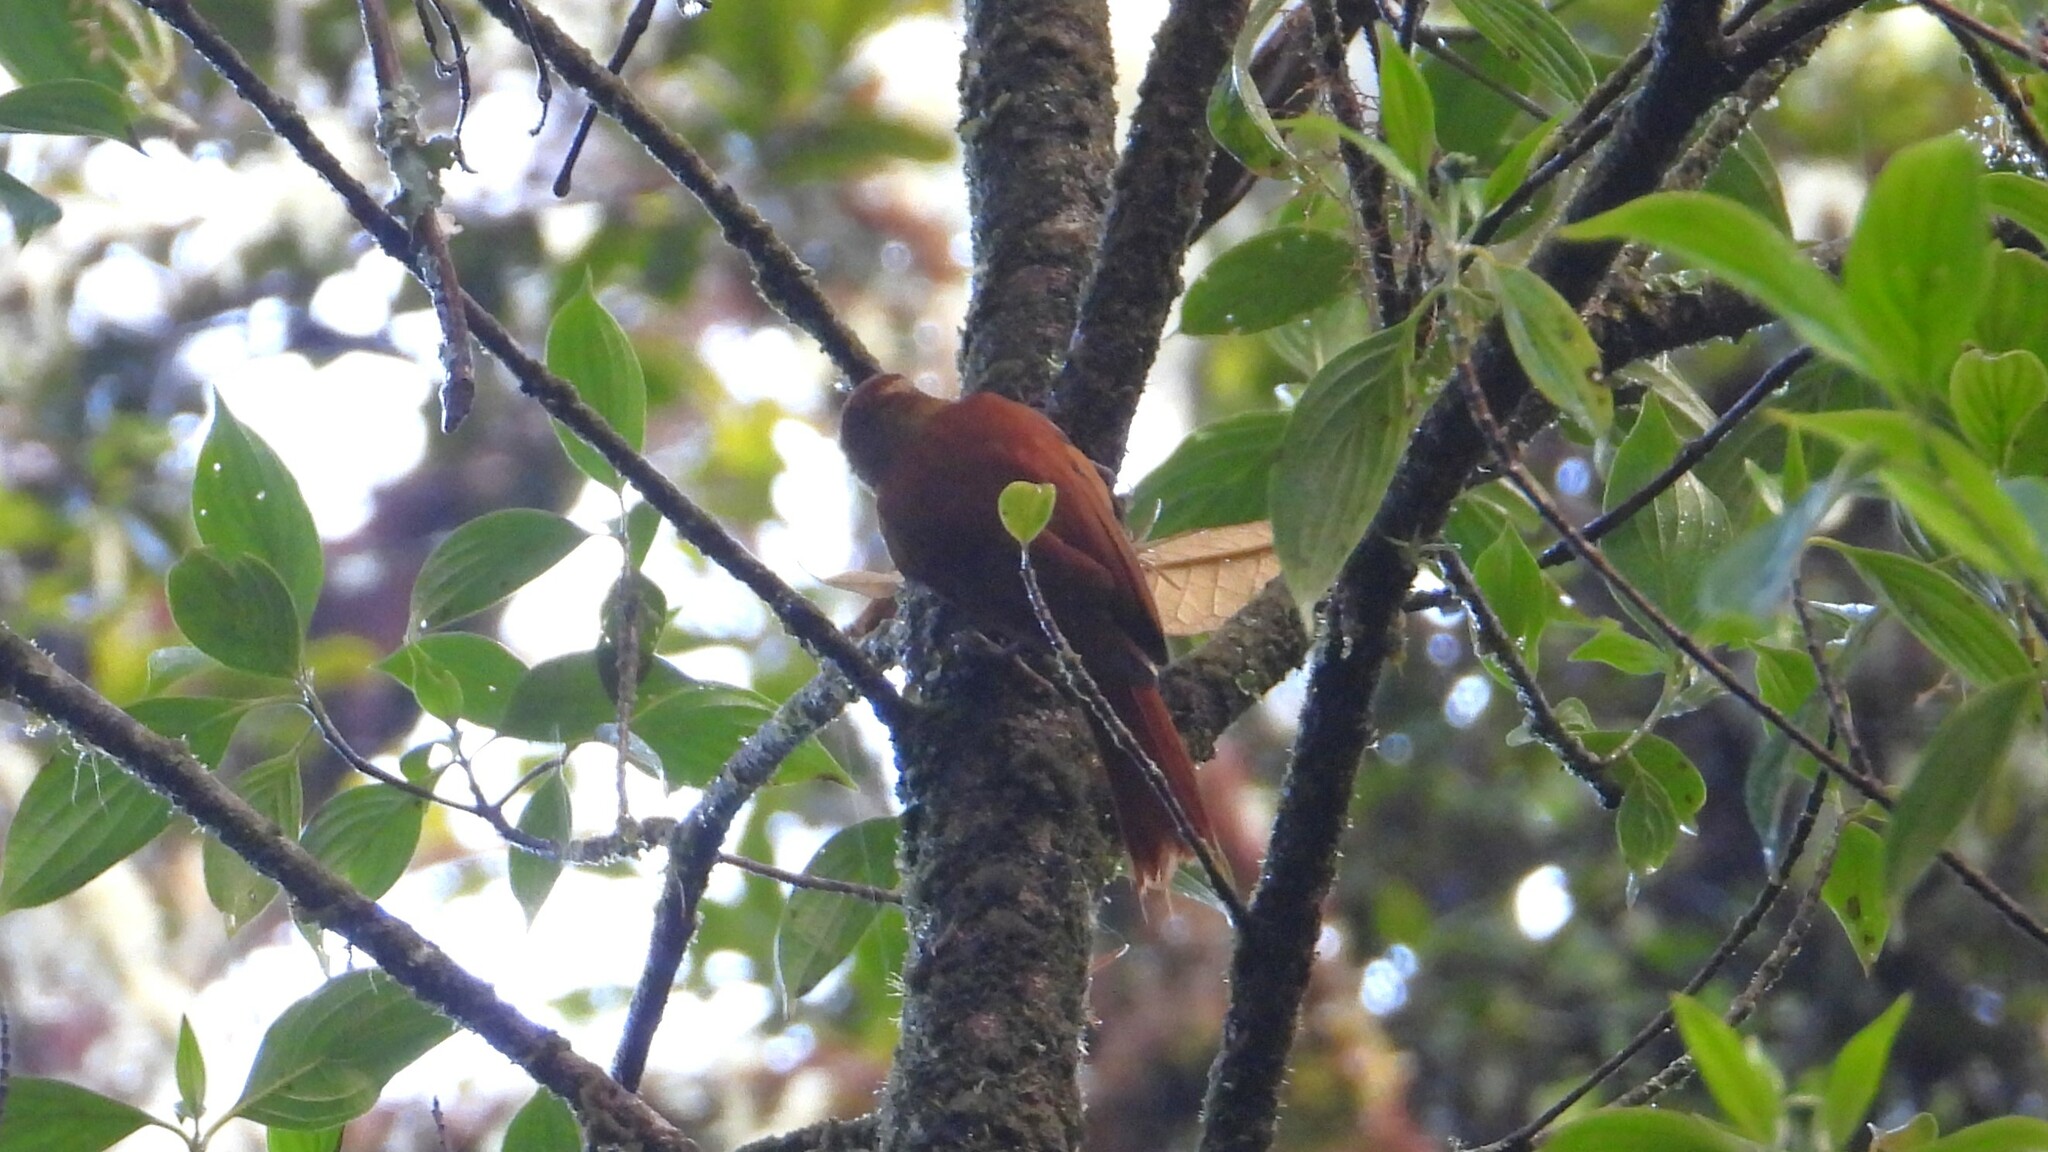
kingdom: Animalia
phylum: Chordata
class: Aves
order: Passeriformes
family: Furnariidae
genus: Margarornis
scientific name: Margarornis rubiginosus
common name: Ruddy treerunner
